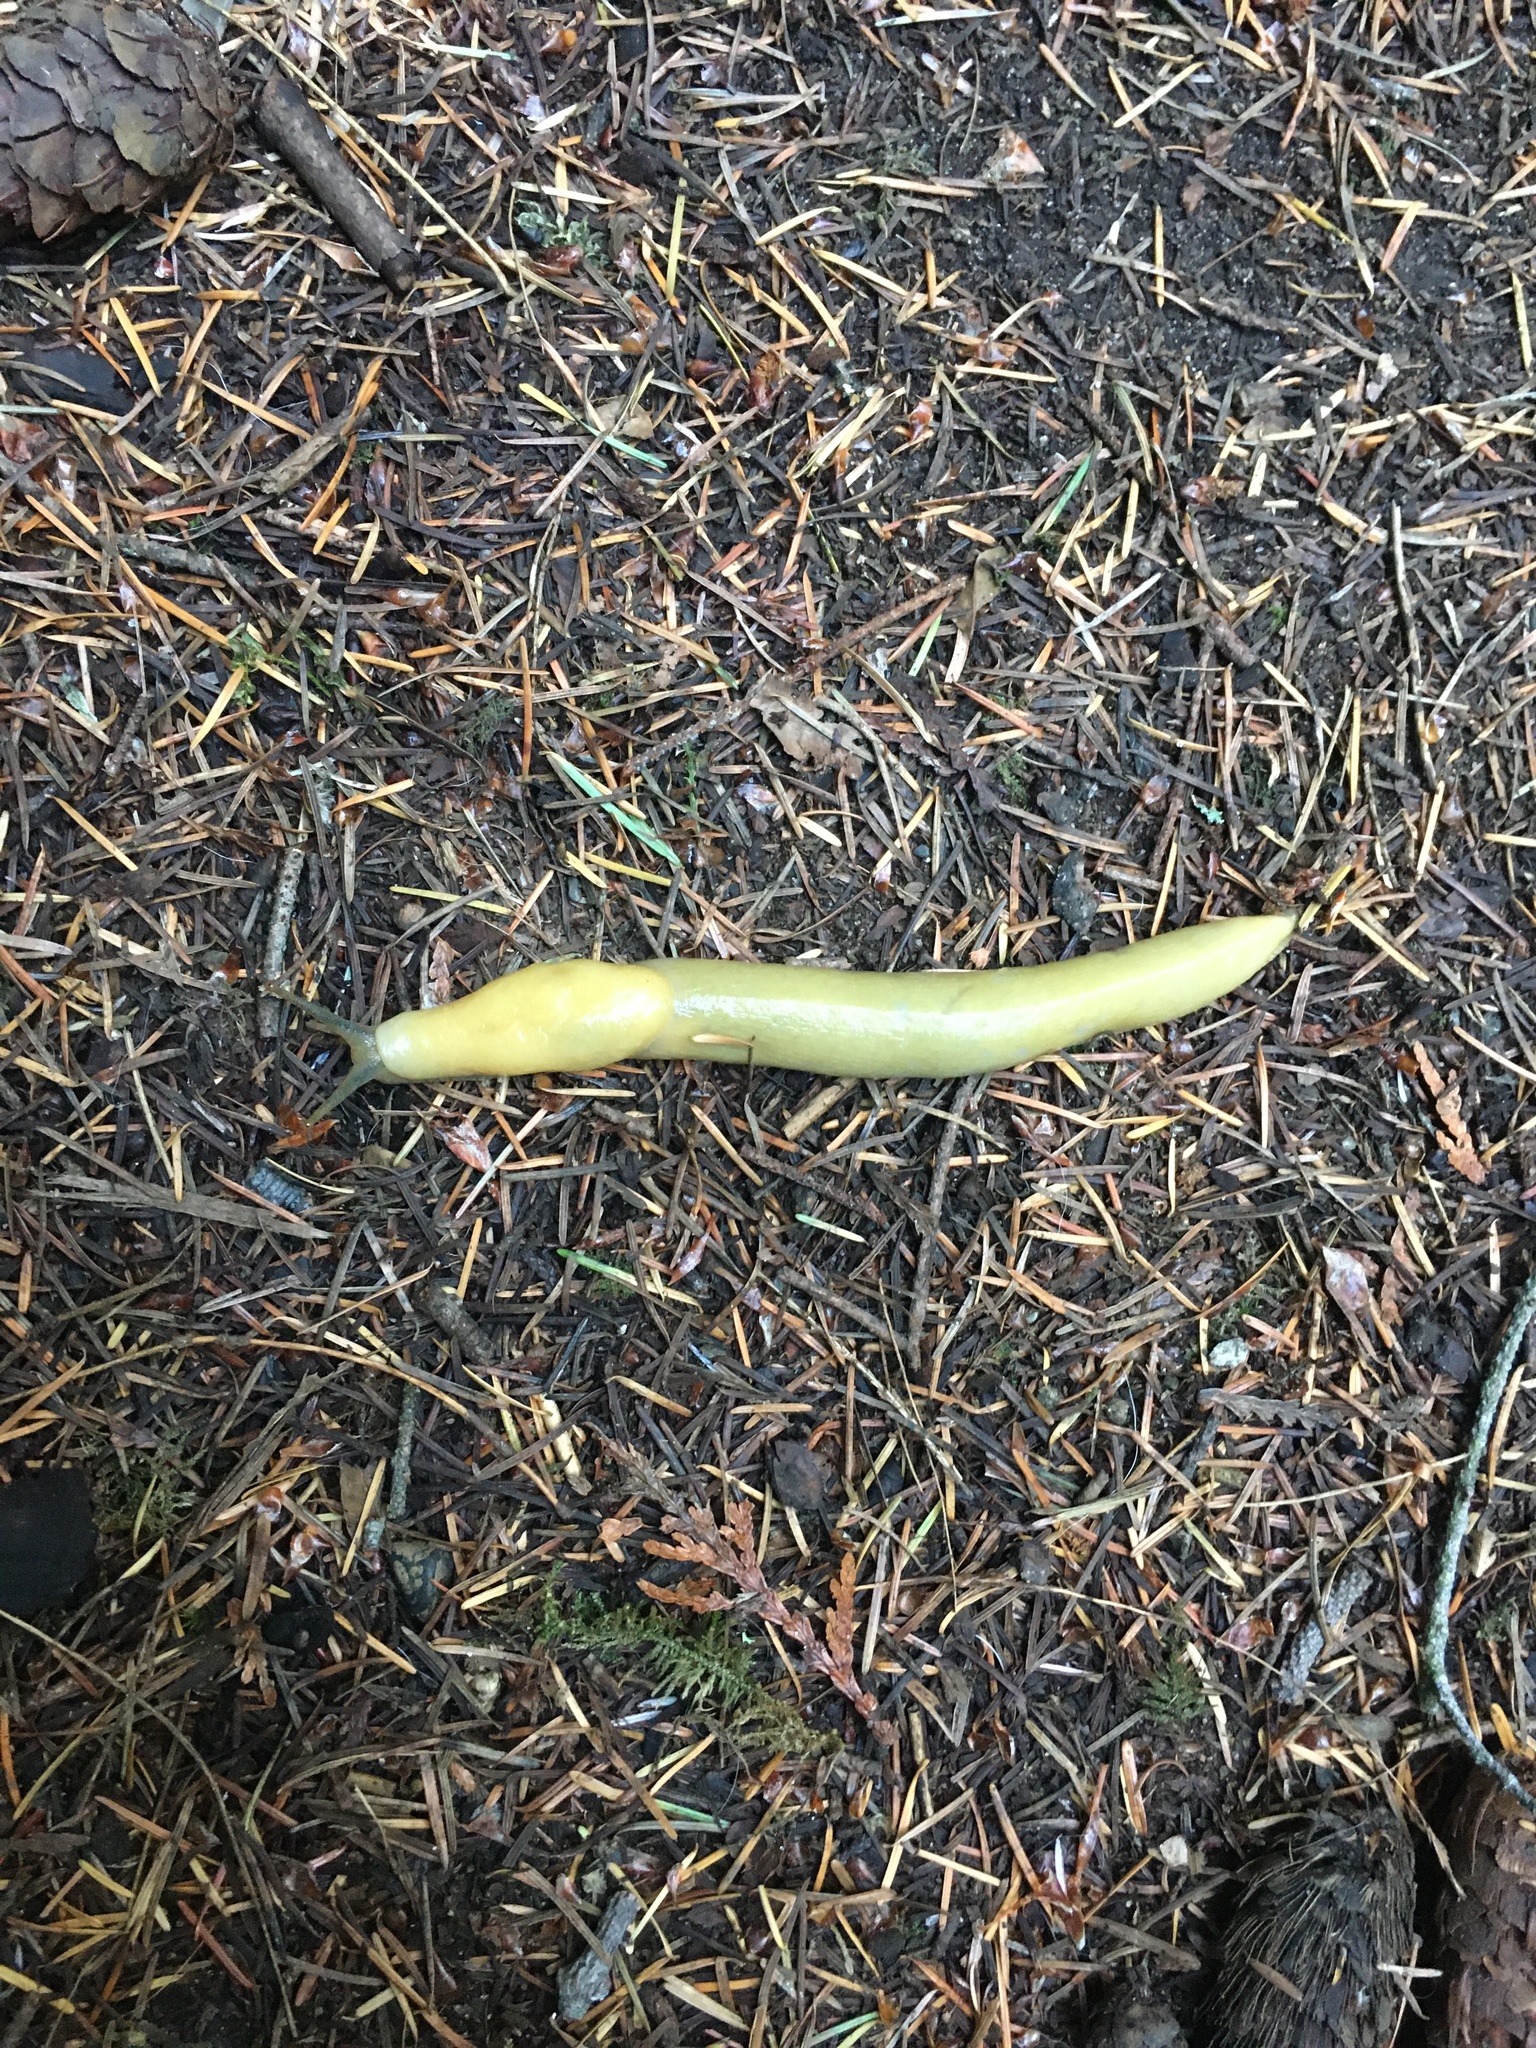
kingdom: Animalia
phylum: Mollusca
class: Gastropoda
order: Stylommatophora
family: Ariolimacidae
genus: Ariolimax
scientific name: Ariolimax columbianus
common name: Pacific banana slug
